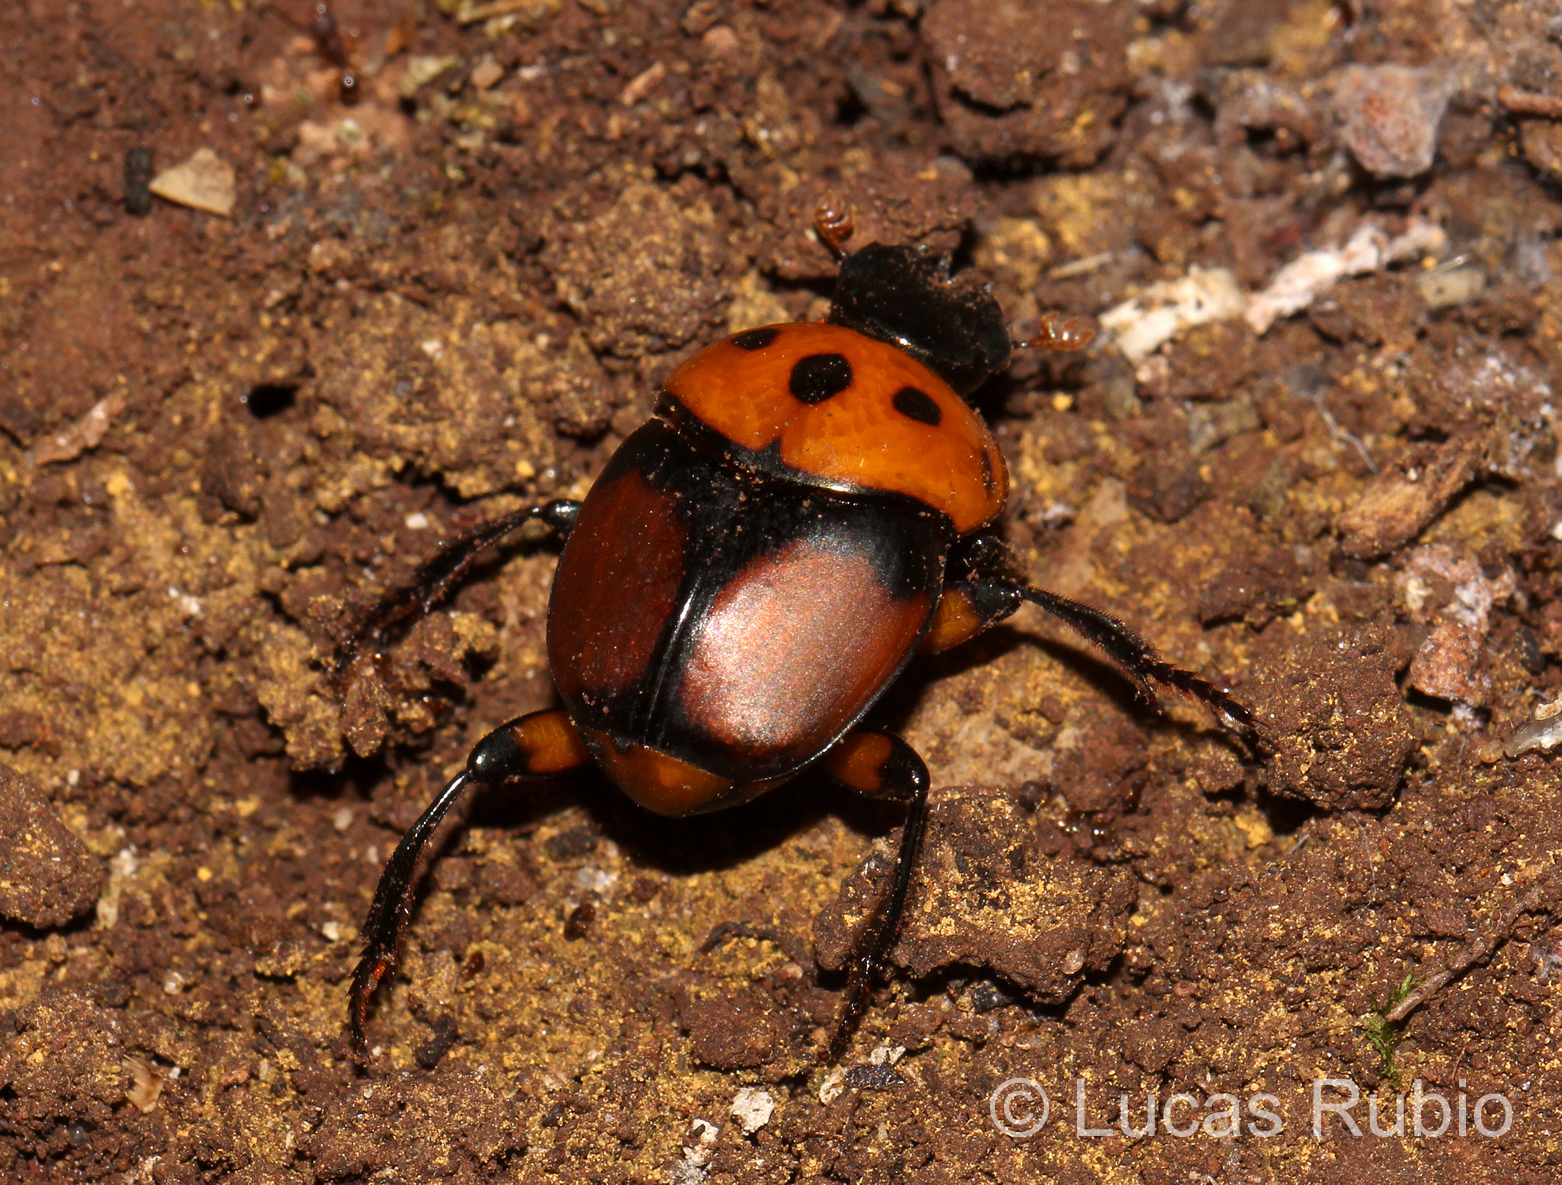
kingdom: Animalia
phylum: Arthropoda
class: Insecta
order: Coleoptera
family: Scarabaeidae
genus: Canthon
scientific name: Canthon quinquemaculatus
